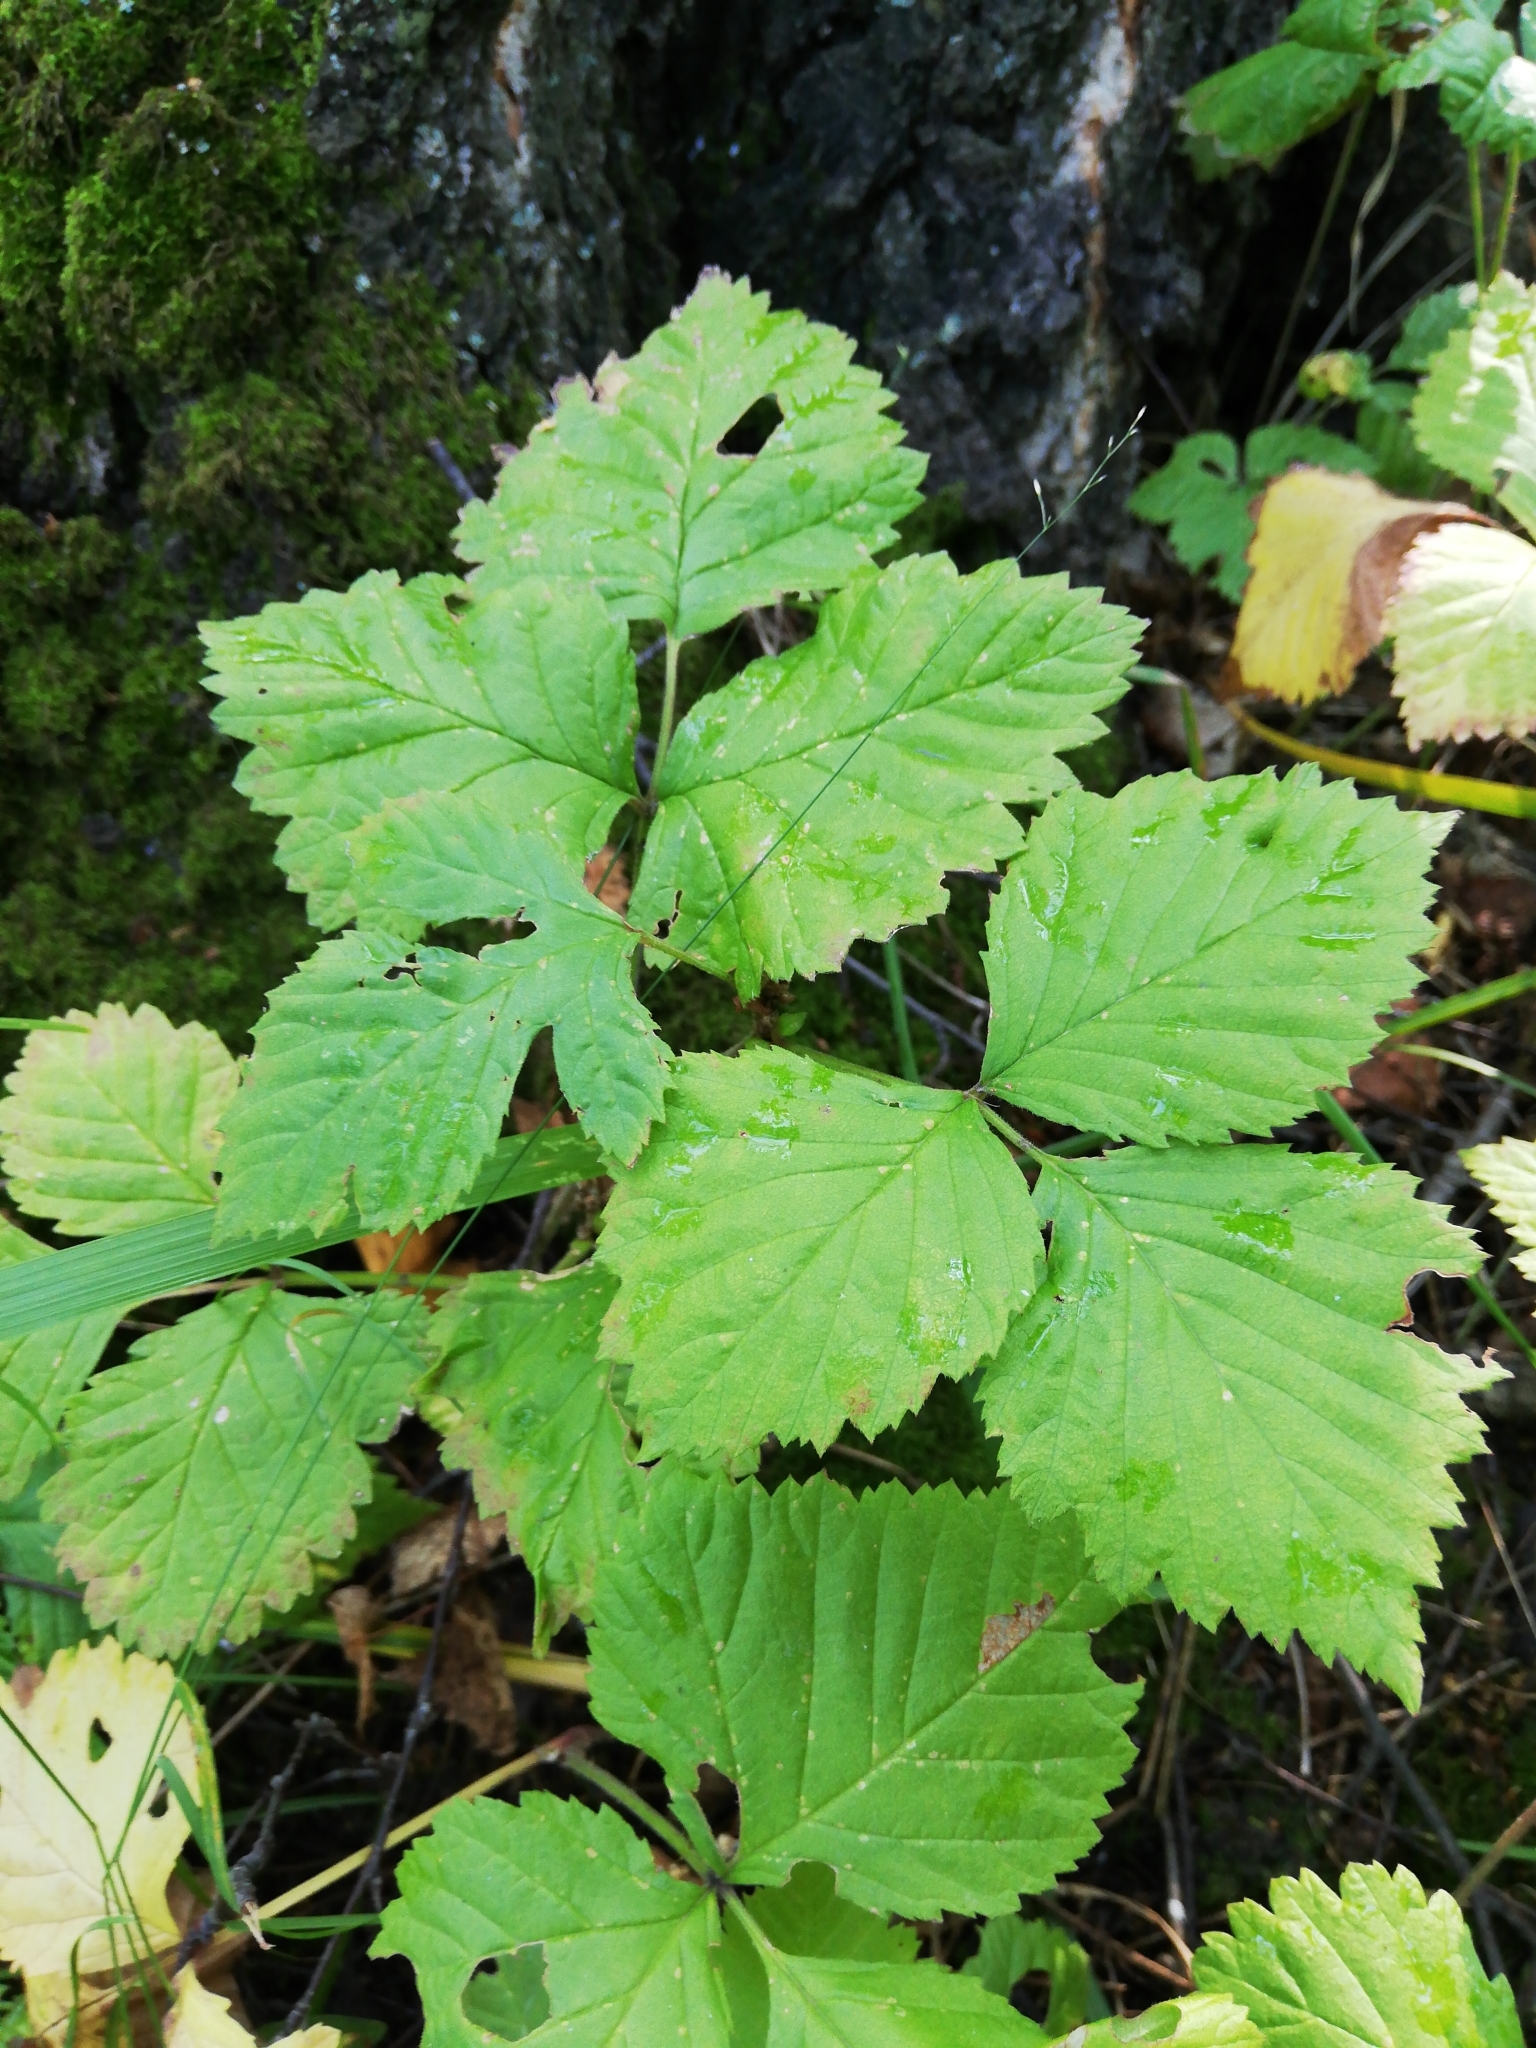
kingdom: Plantae
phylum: Tracheophyta
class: Magnoliopsida
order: Rosales
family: Rosaceae
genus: Rubus
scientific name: Rubus saxatilis
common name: Stone bramble
